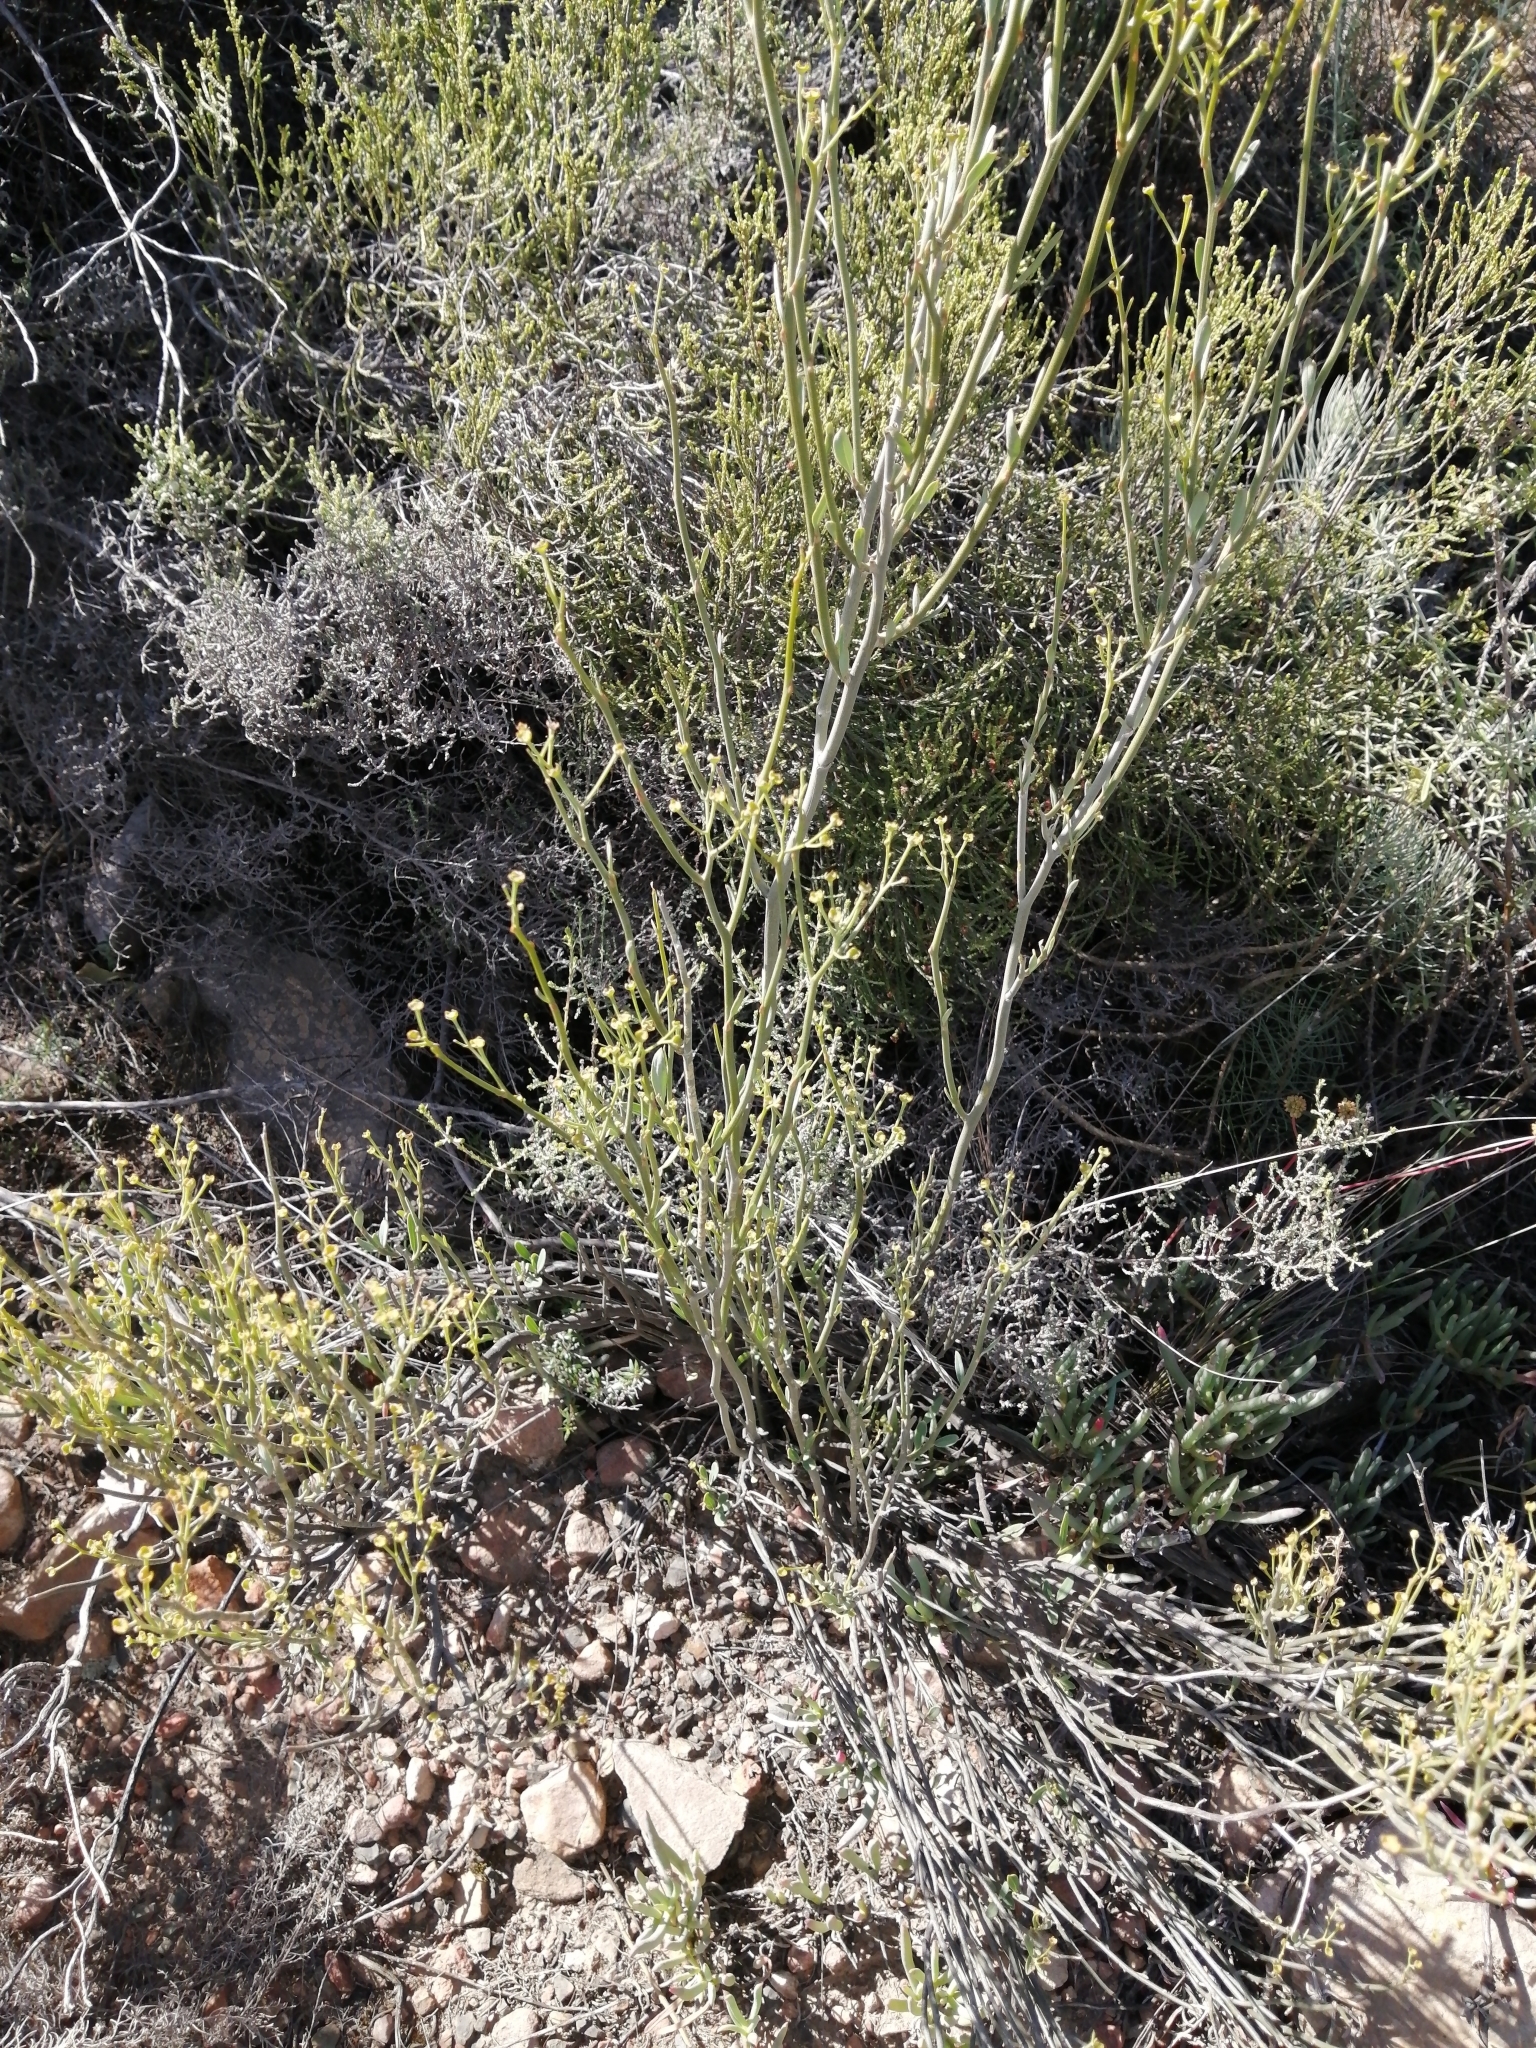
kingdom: Plantae
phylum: Tracheophyta
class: Magnoliopsida
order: Solanales
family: Montiniaceae
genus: Montinia
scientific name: Montinia caryophyllacea
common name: Wild clove-bush
